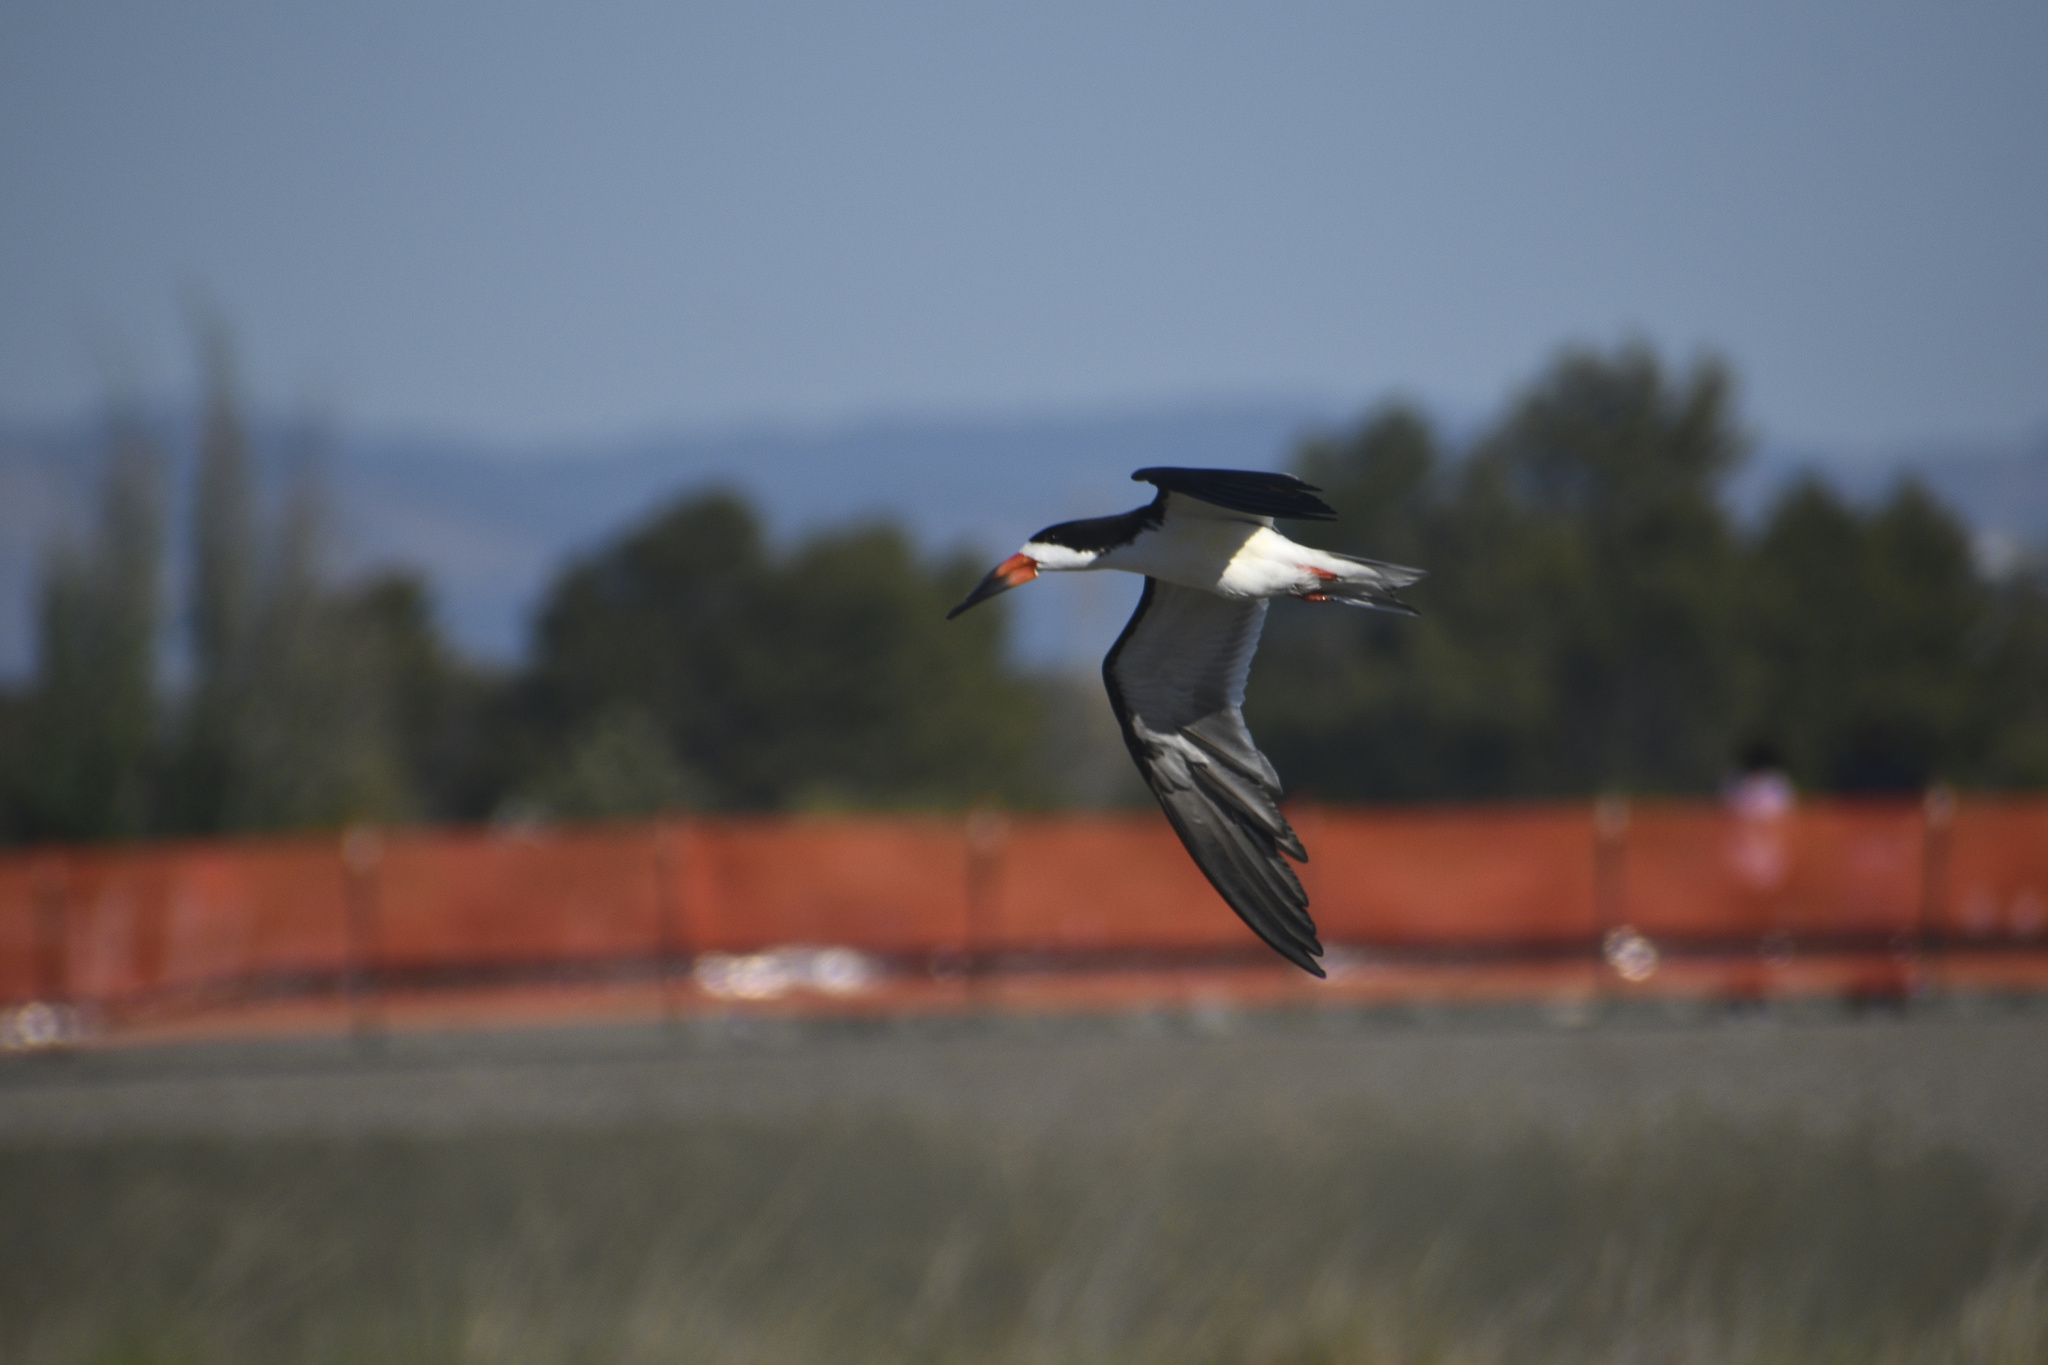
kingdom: Animalia
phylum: Chordata
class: Aves
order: Charadriiformes
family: Laridae
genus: Rynchops
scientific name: Rynchops niger
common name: Black skimmer
